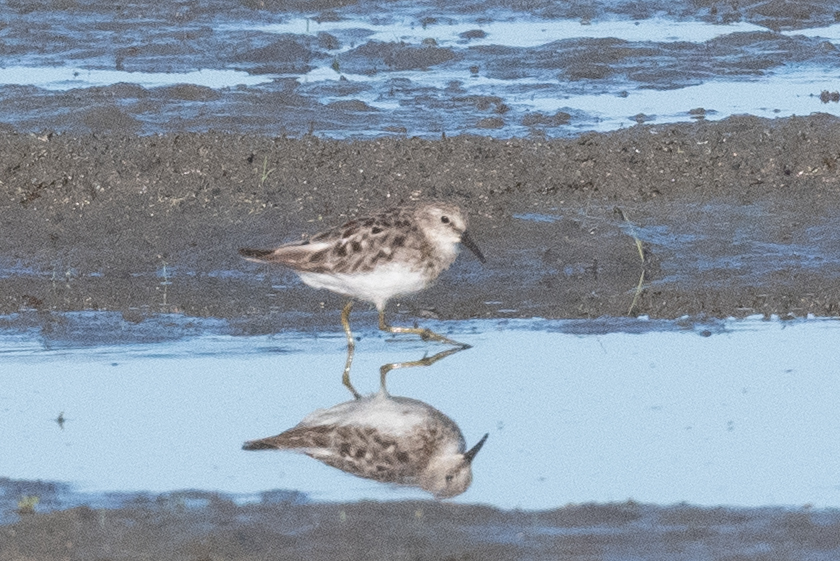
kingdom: Animalia
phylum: Chordata
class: Aves
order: Charadriiformes
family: Scolopacidae
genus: Calidris
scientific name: Calidris minutilla
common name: Least sandpiper
